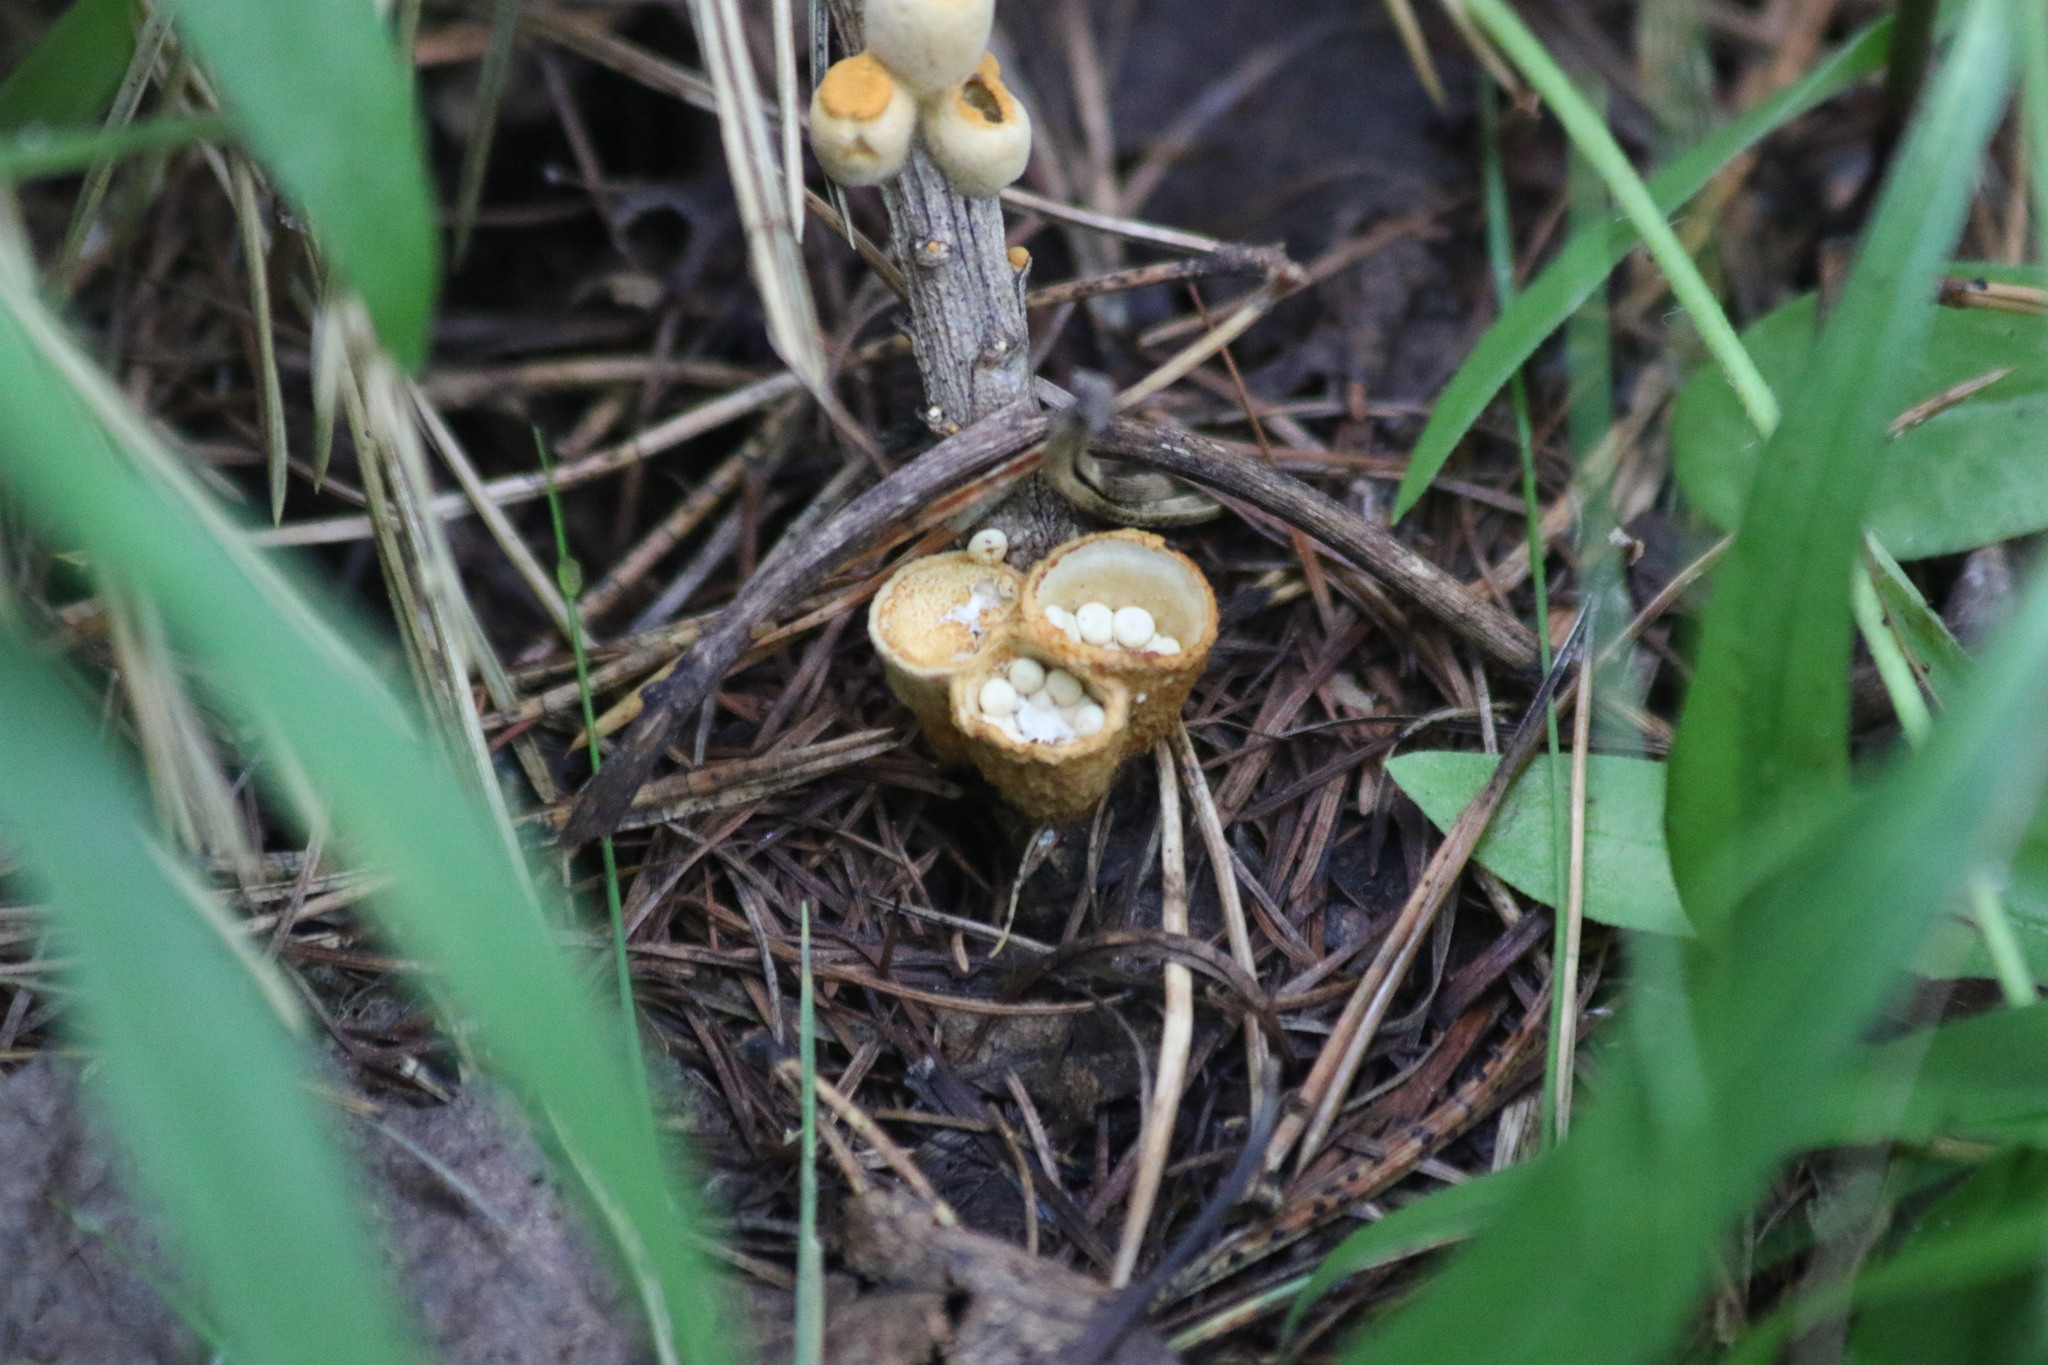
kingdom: Fungi
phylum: Basidiomycota
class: Agaricomycetes
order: Agaricales
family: Nidulariaceae
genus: Crucibulum
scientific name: Crucibulum laeve
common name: Common bird's nest
